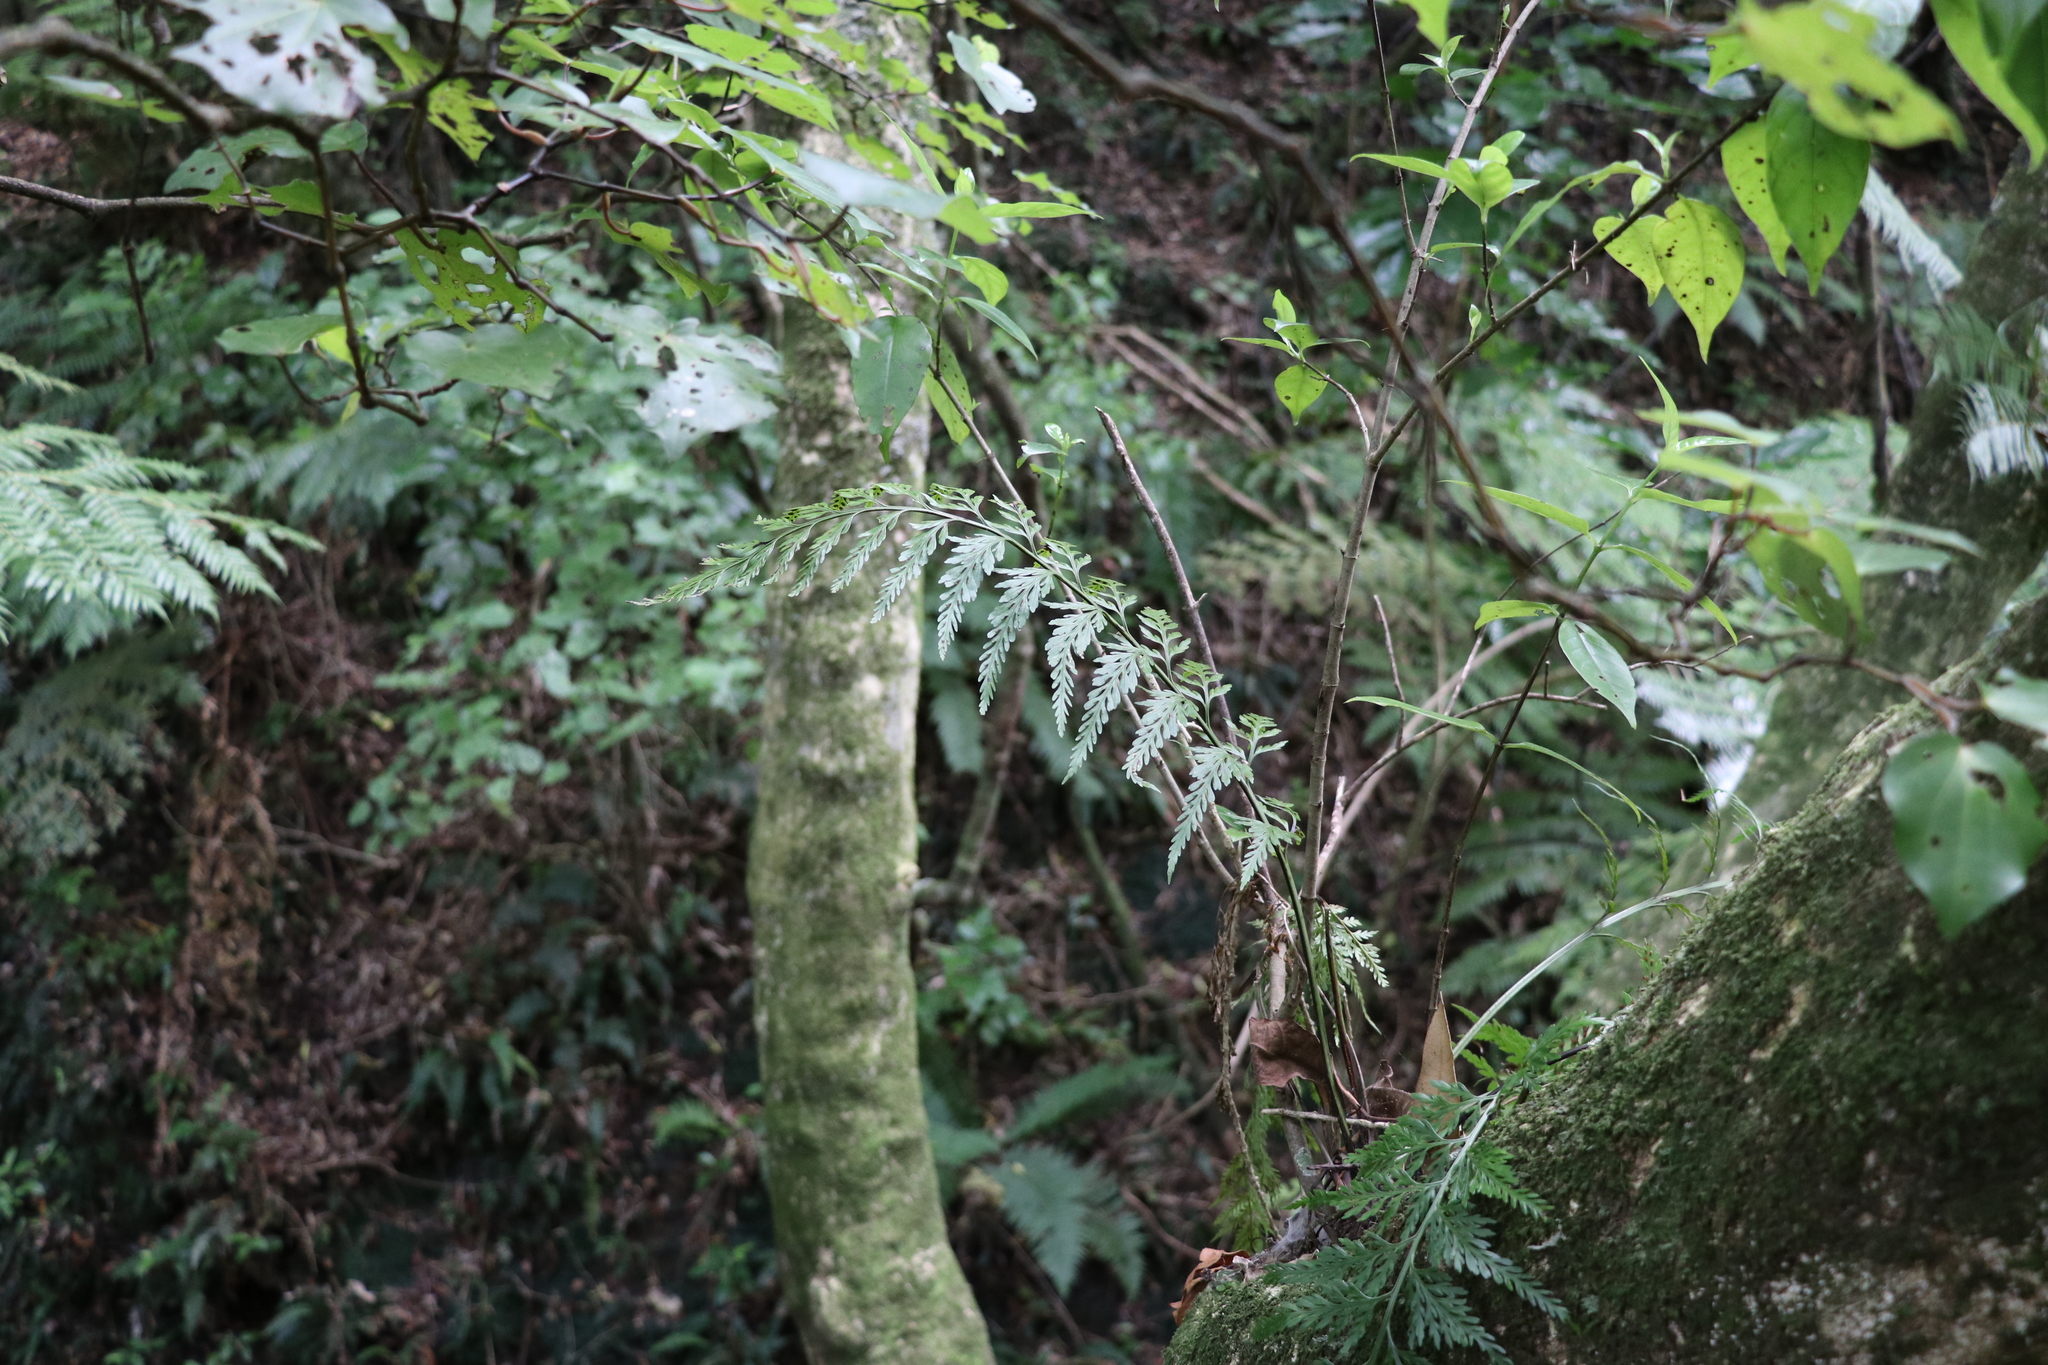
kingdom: Plantae
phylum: Tracheophyta
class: Polypodiopsida
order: Polypodiales
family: Aspleniaceae
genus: Asplenium
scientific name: Asplenium flaccidum
